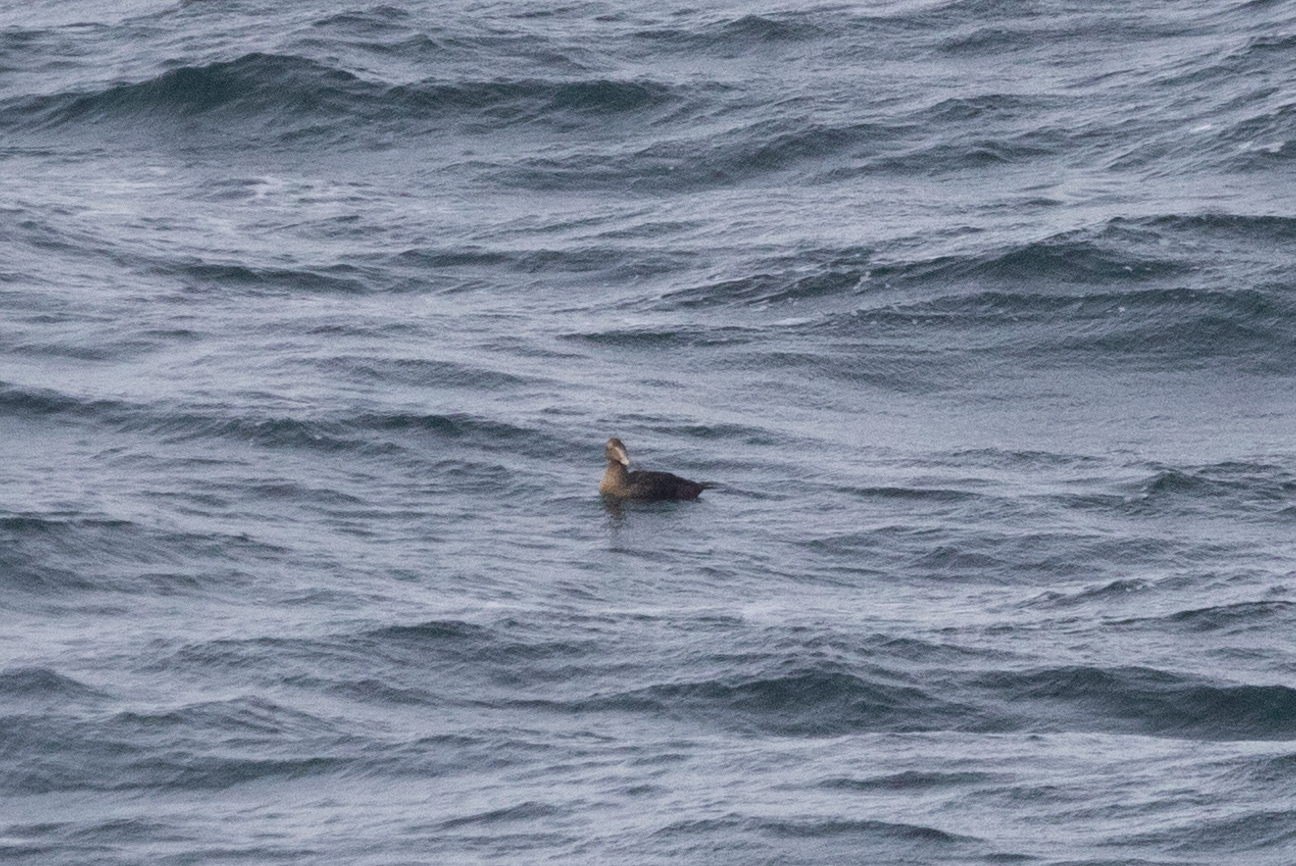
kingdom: Animalia
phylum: Chordata
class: Aves
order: Anseriformes
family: Anatidae
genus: Somateria
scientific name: Somateria mollissima
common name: Common eider
